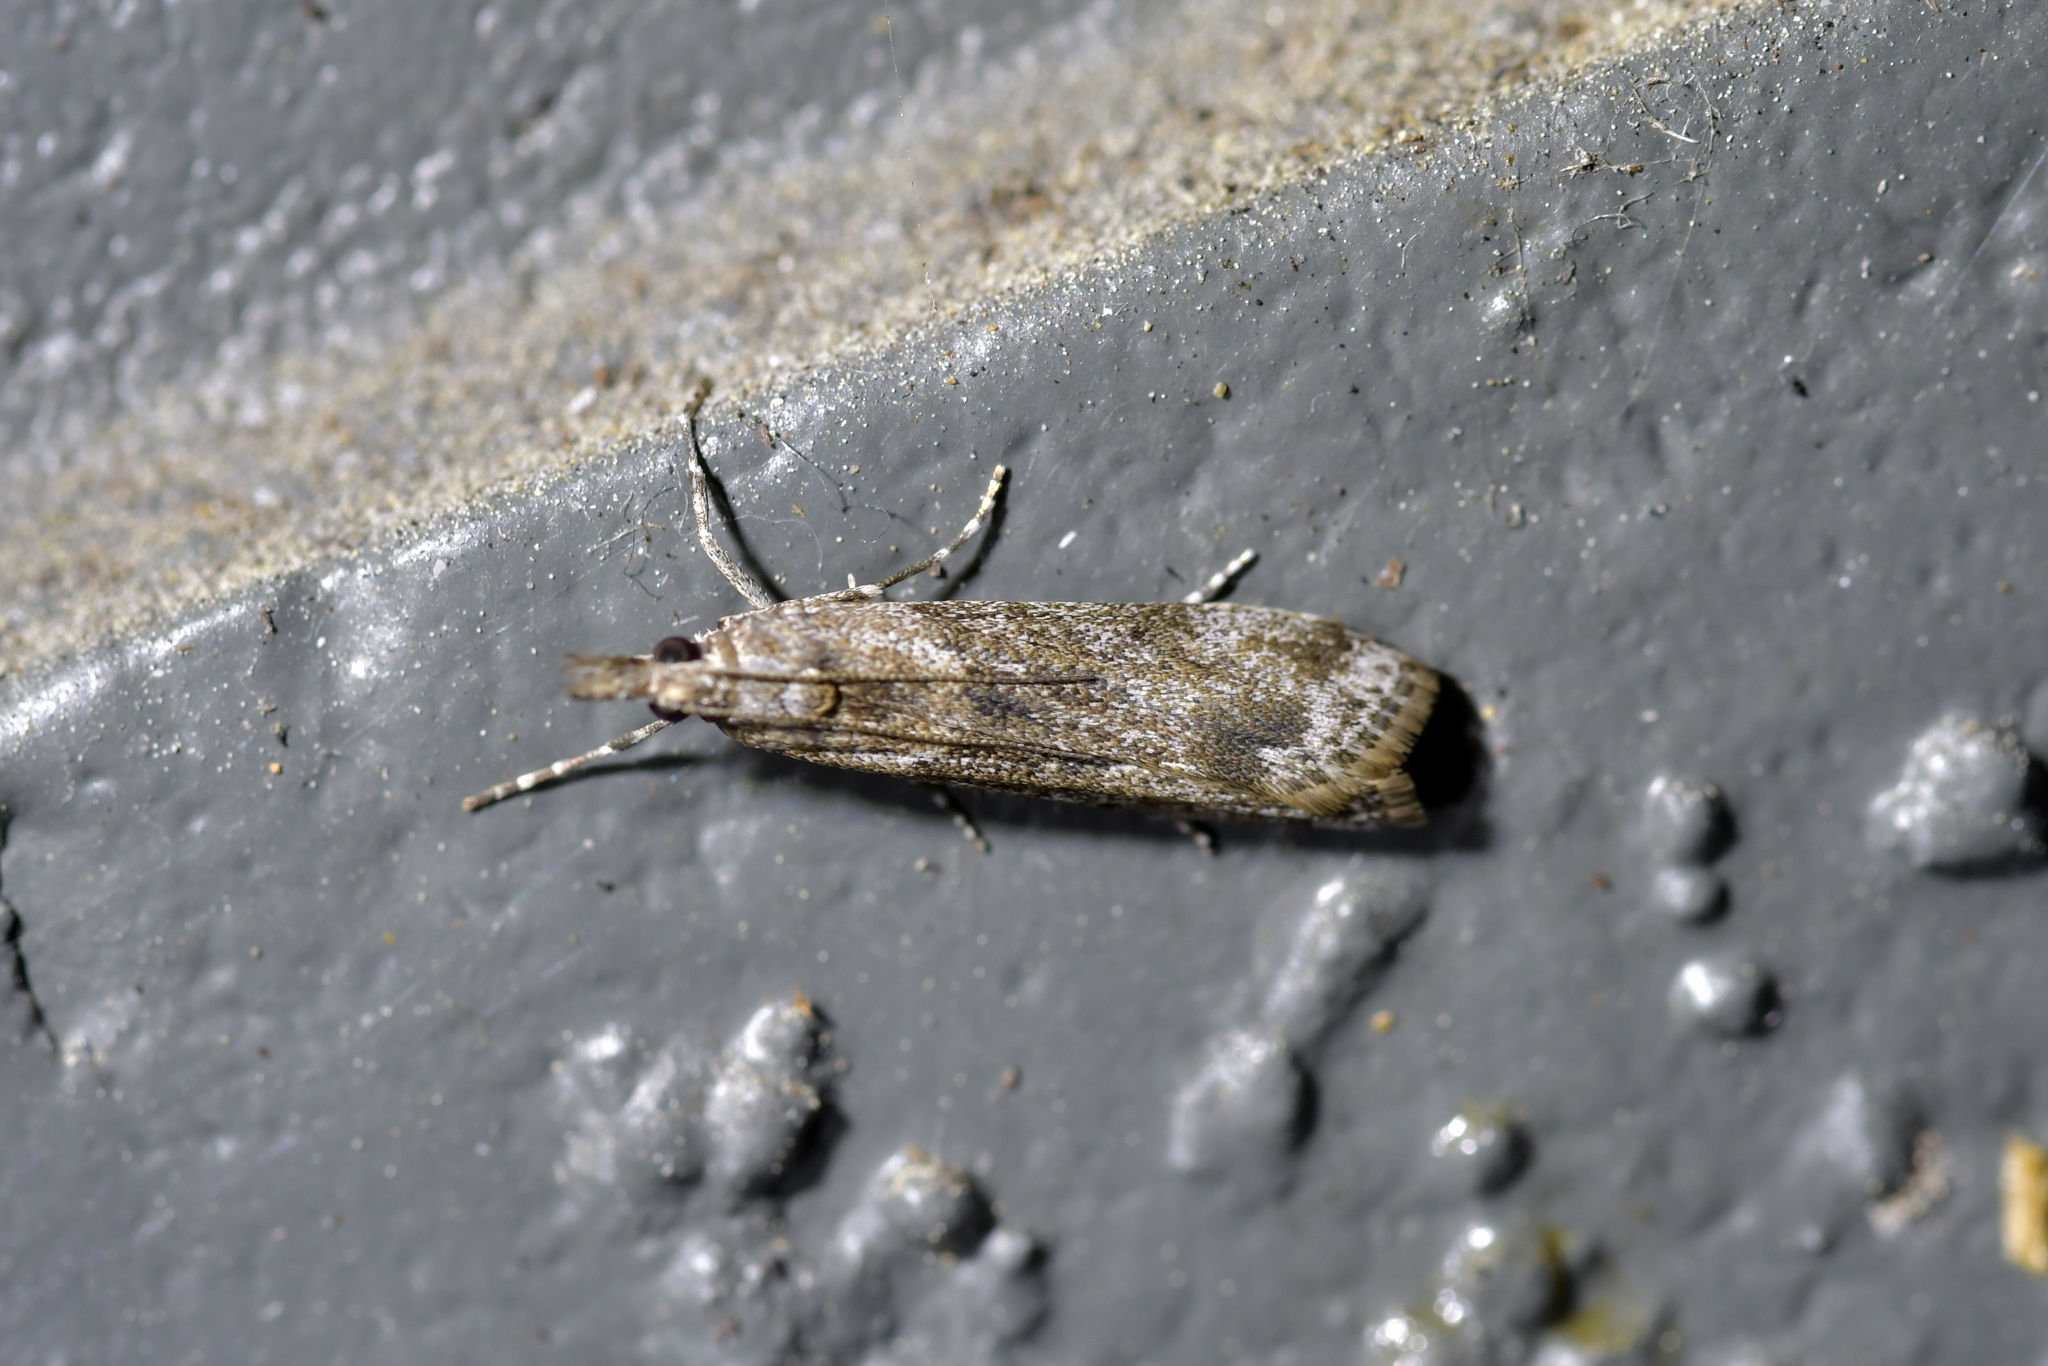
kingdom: Animalia
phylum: Arthropoda
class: Insecta
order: Lepidoptera
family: Crambidae
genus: Eudonia
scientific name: Eudonia leptalea
